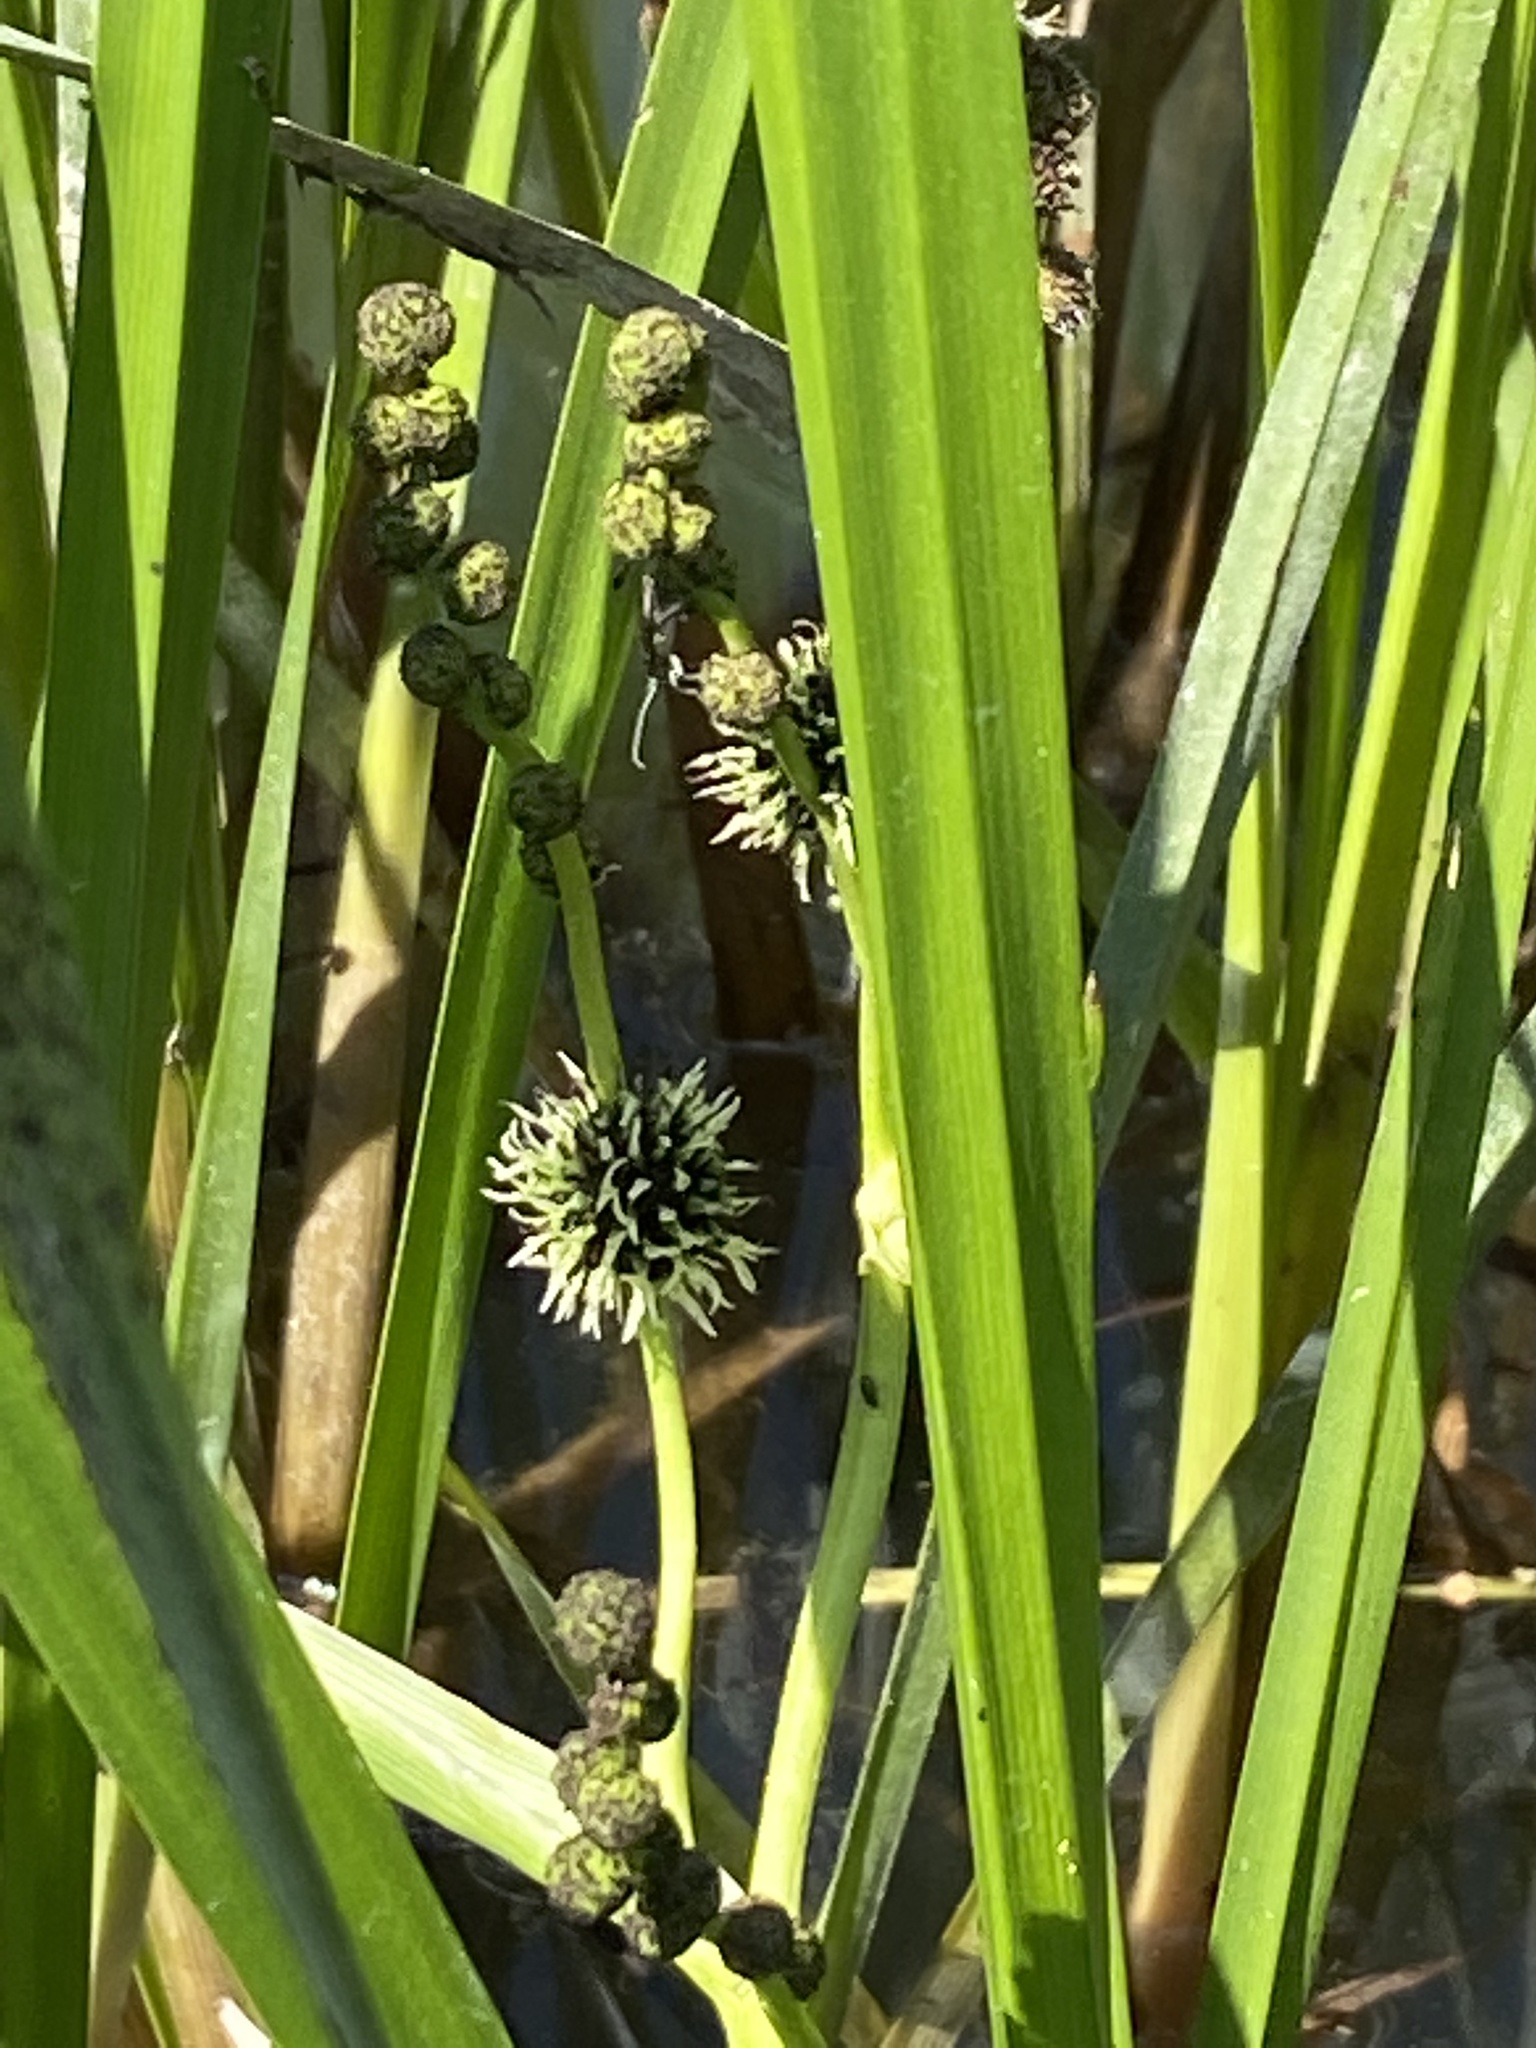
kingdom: Plantae
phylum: Tracheophyta
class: Liliopsida
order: Poales
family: Typhaceae
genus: Sparganium
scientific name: Sparganium erectum
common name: Branched bur-reed
